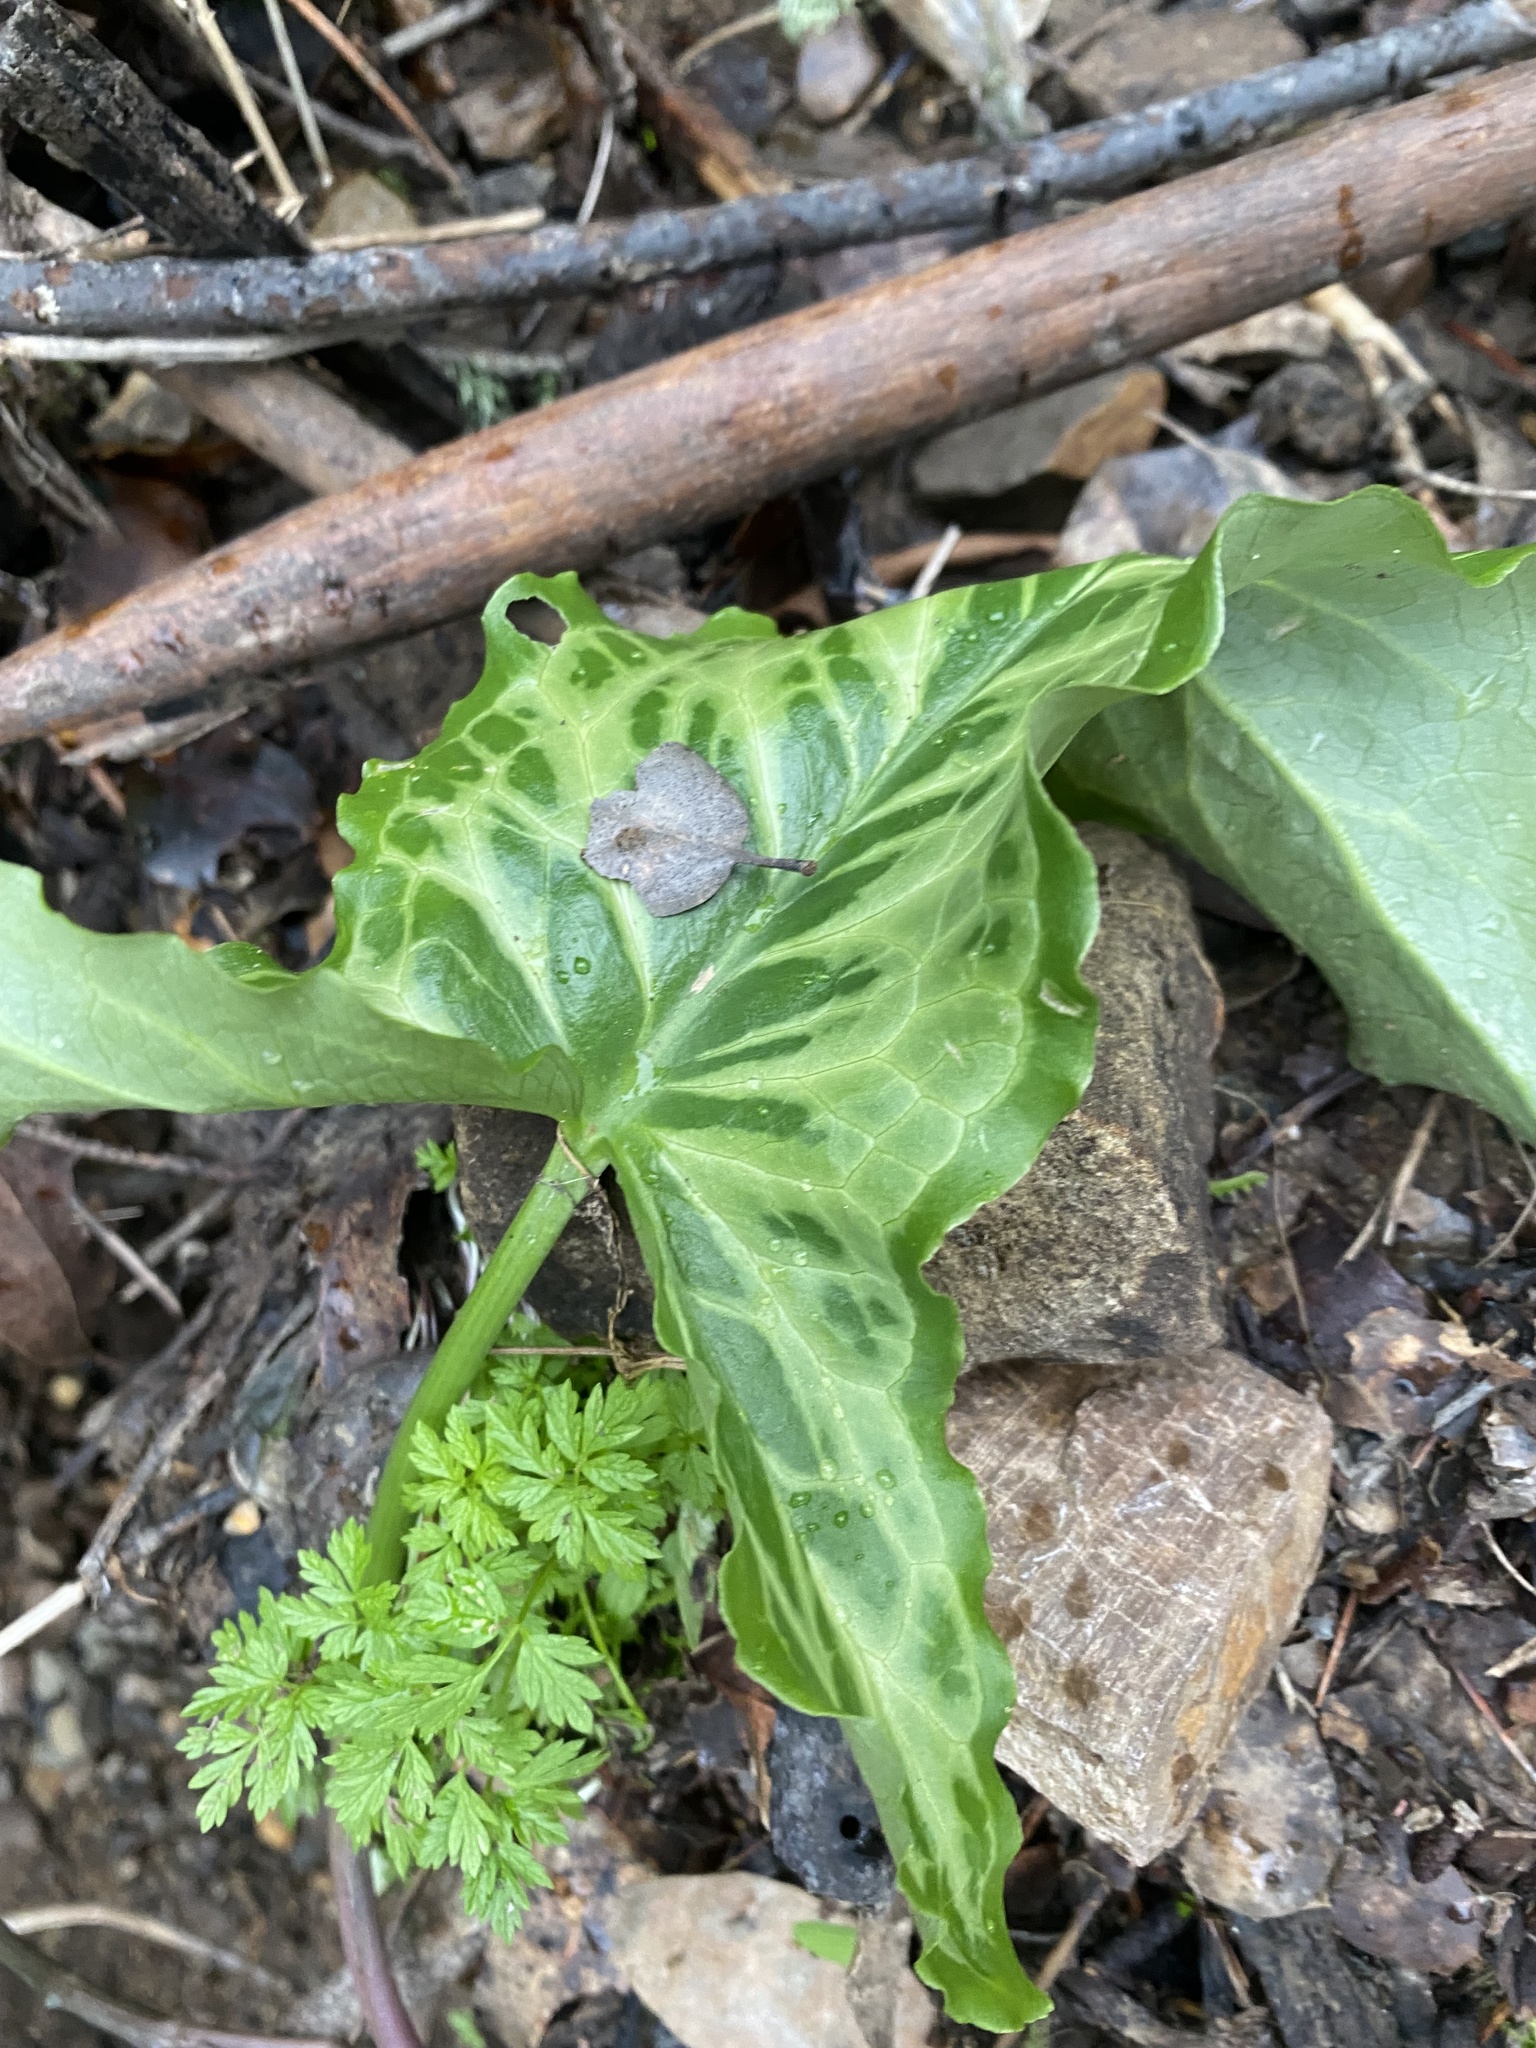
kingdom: Plantae
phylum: Tracheophyta
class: Liliopsida
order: Alismatales
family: Araceae
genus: Arum
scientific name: Arum italicum
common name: Italian lords-and-ladies
